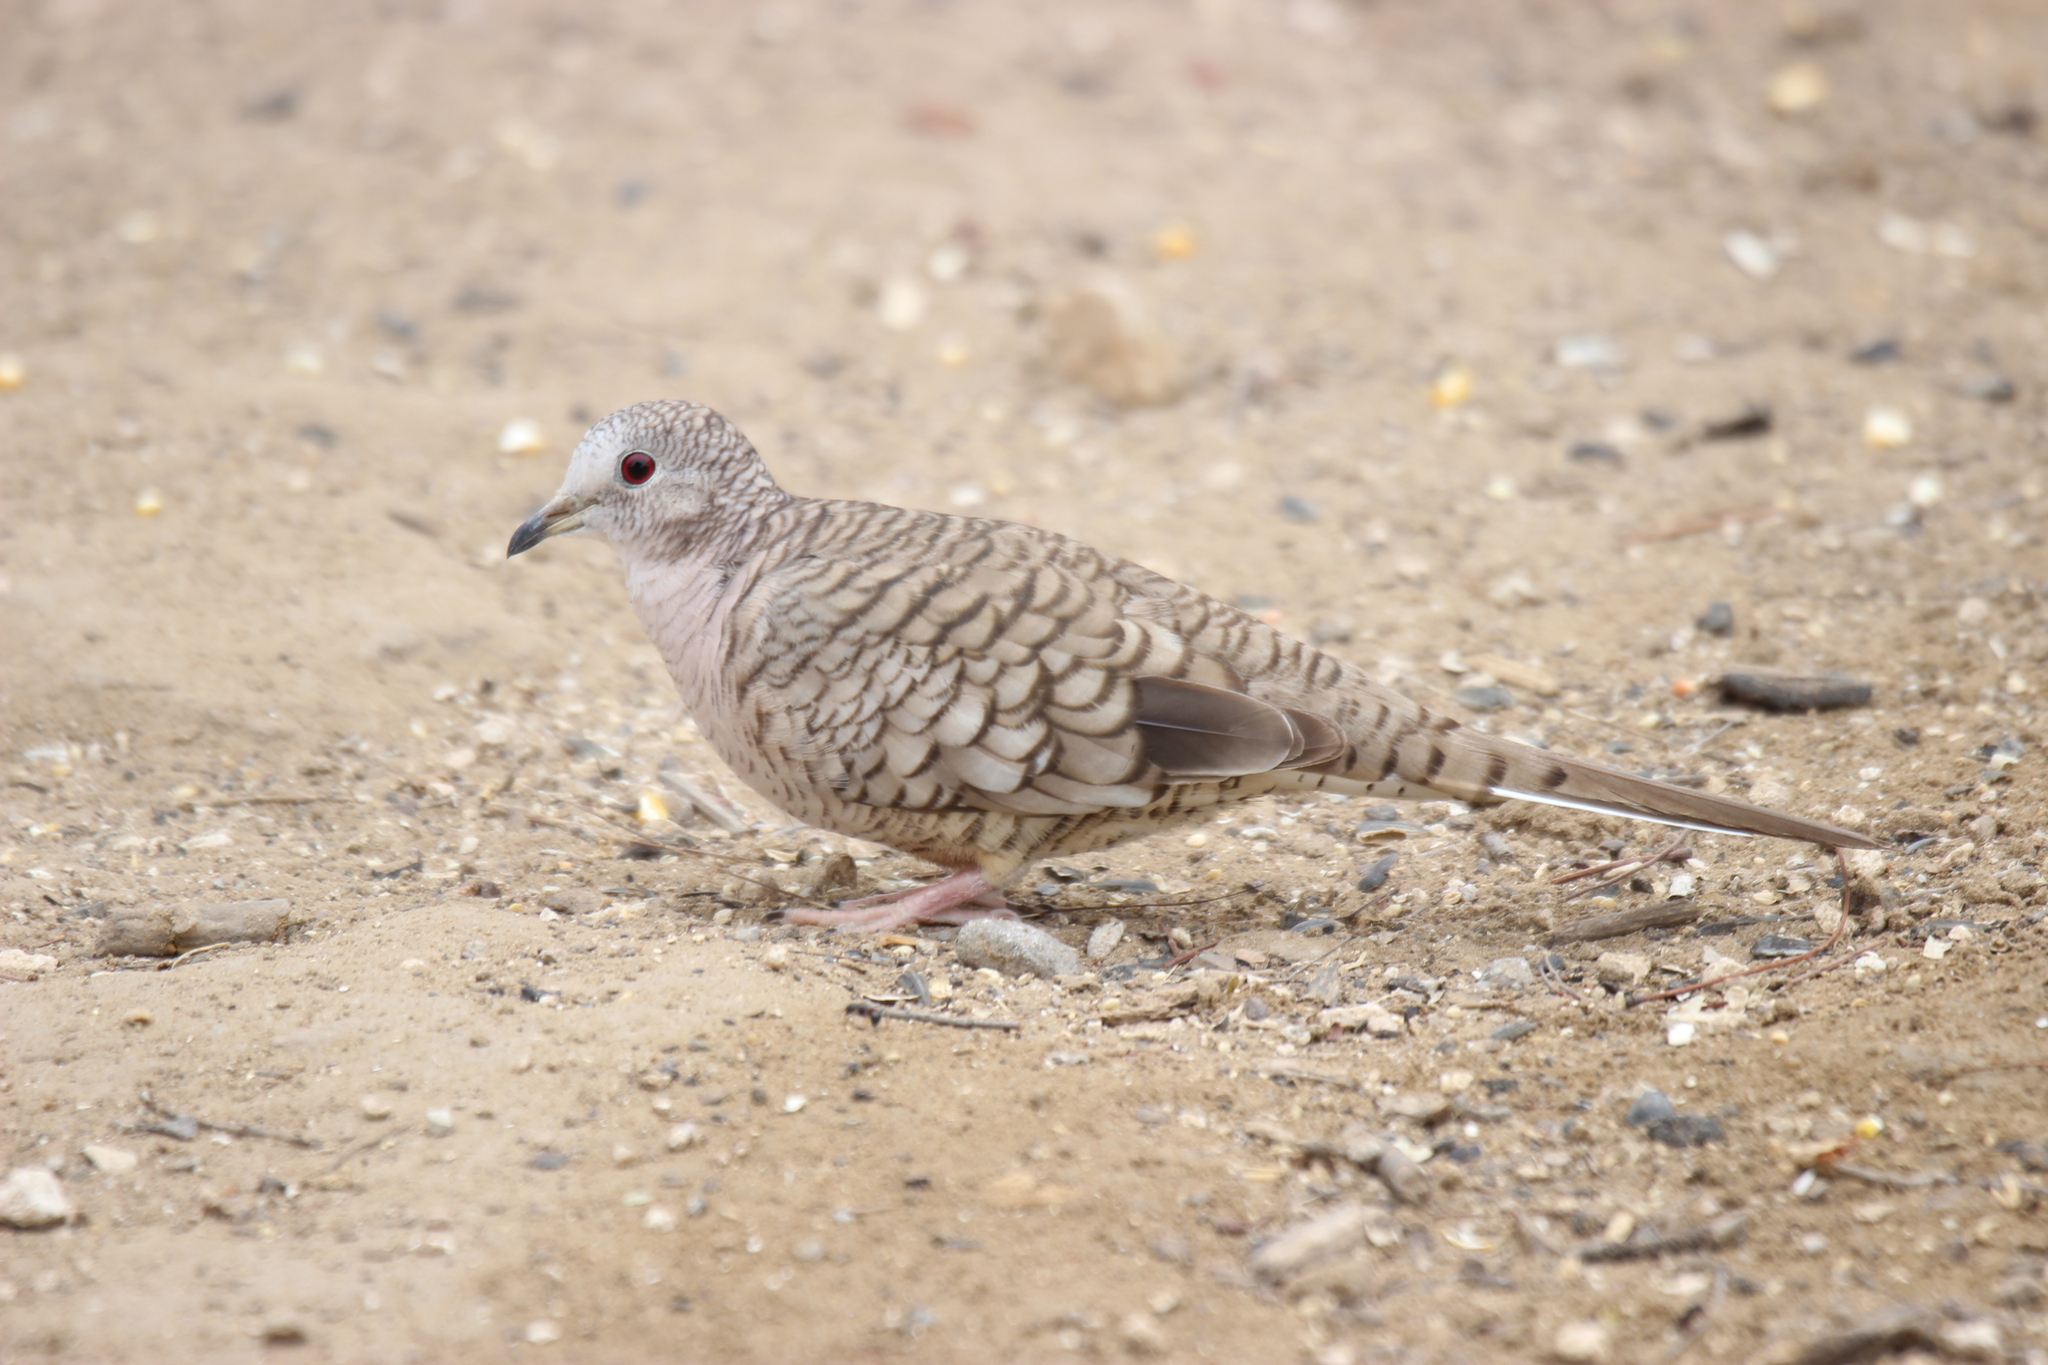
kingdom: Animalia
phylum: Chordata
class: Aves
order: Columbiformes
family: Columbidae
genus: Columbina
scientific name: Columbina inca
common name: Inca dove
